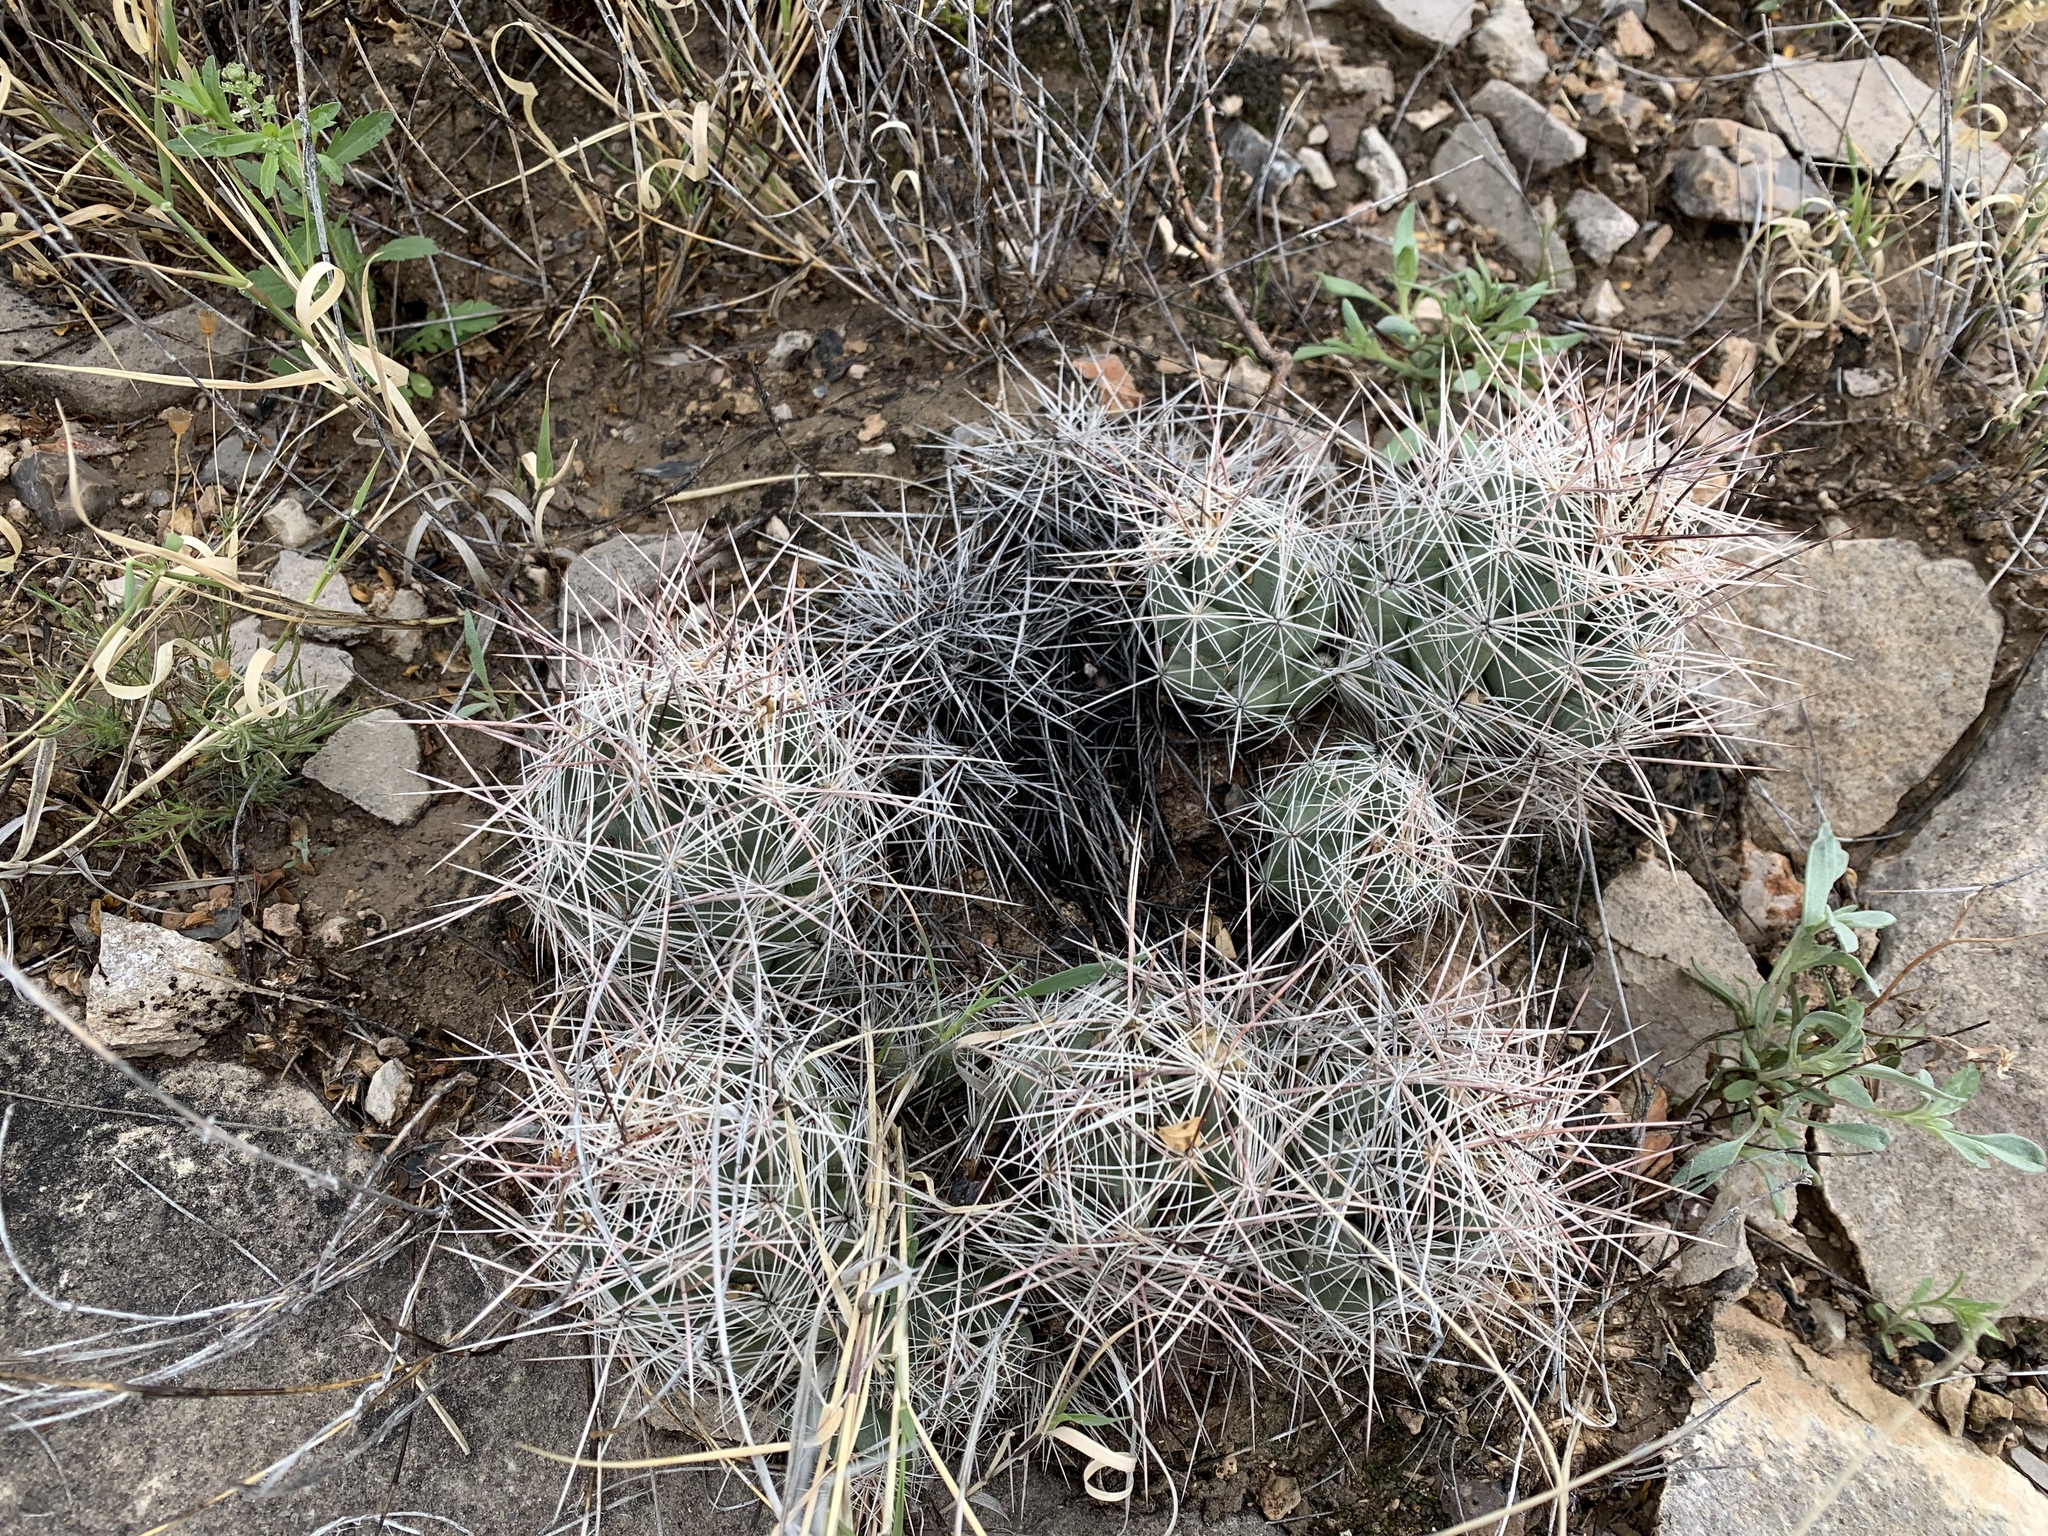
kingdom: Plantae
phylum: Tracheophyta
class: Magnoliopsida
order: Caryophyllales
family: Cactaceae
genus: Coryphantha
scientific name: Coryphantha macromeris
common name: Nipple beehive cactus
